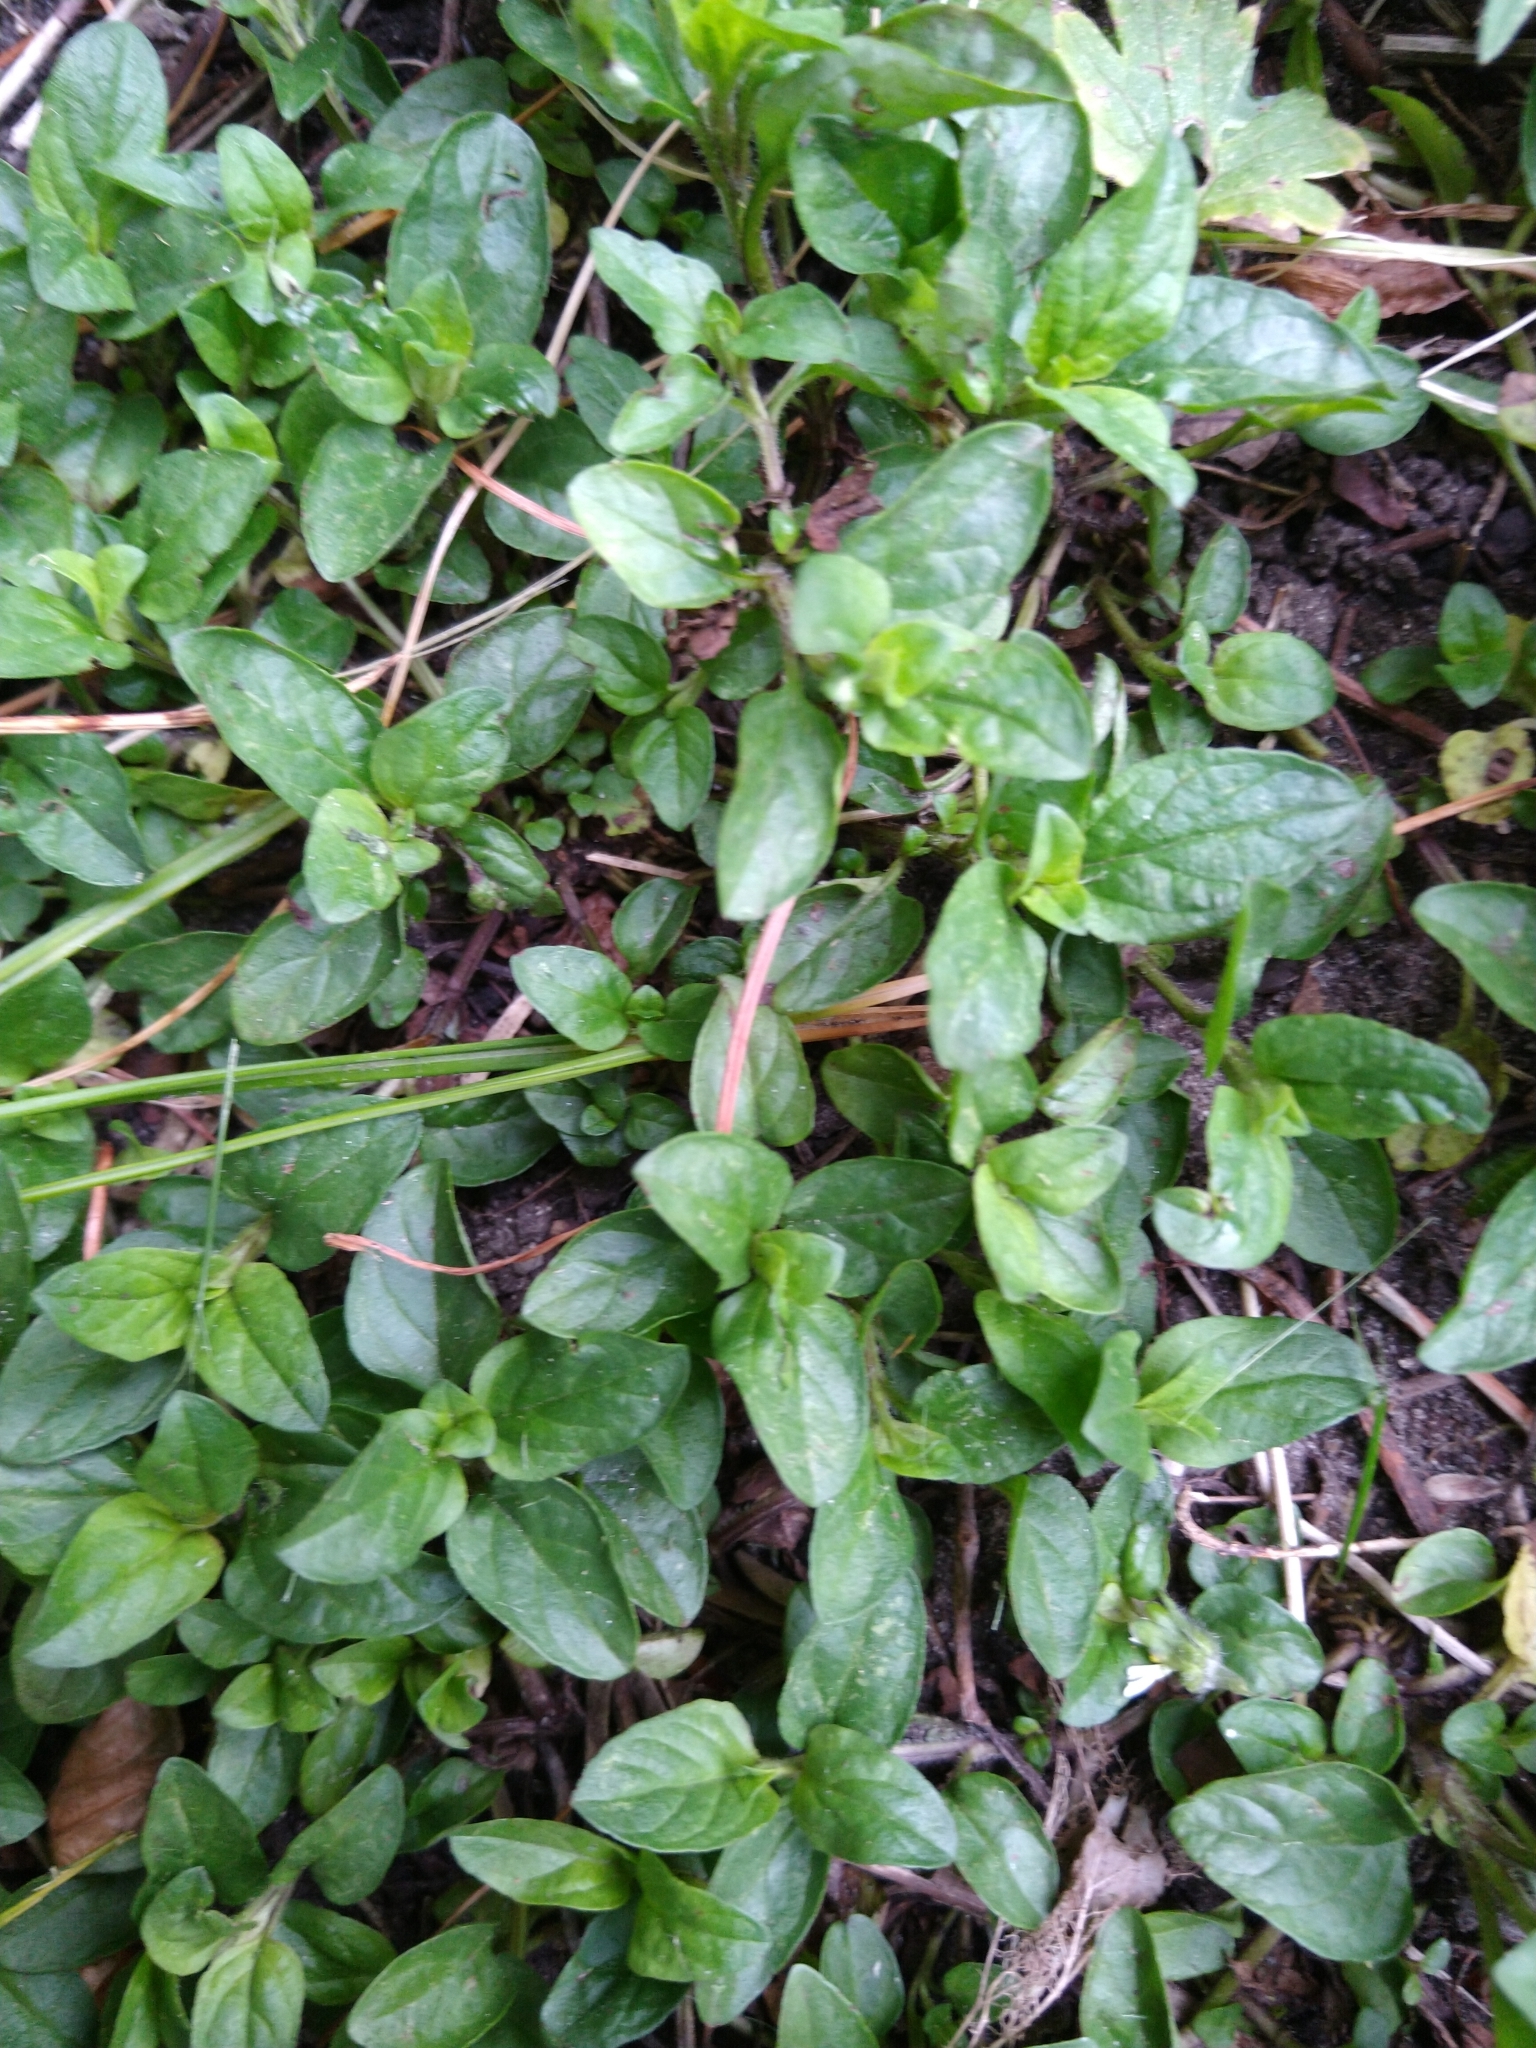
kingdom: Plantae
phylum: Tracheophyta
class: Magnoliopsida
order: Lamiales
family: Lamiaceae
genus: Prunella
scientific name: Prunella vulgaris
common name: Heal-all
